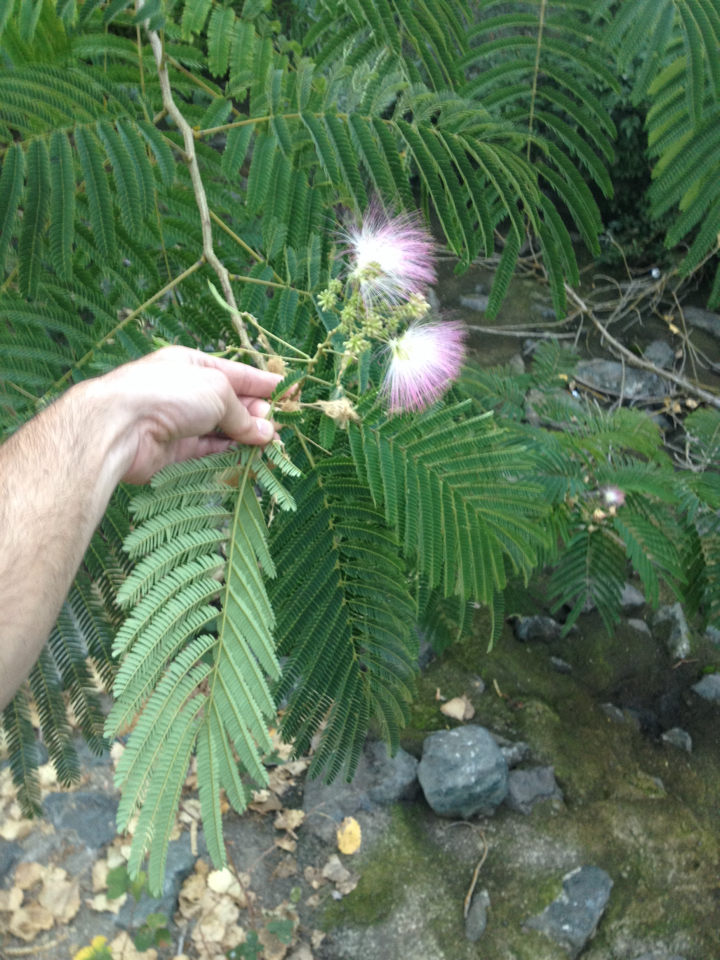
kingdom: Plantae
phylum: Tracheophyta
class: Magnoliopsida
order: Fabales
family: Fabaceae
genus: Albizia
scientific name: Albizia julibrissin
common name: Silktree
